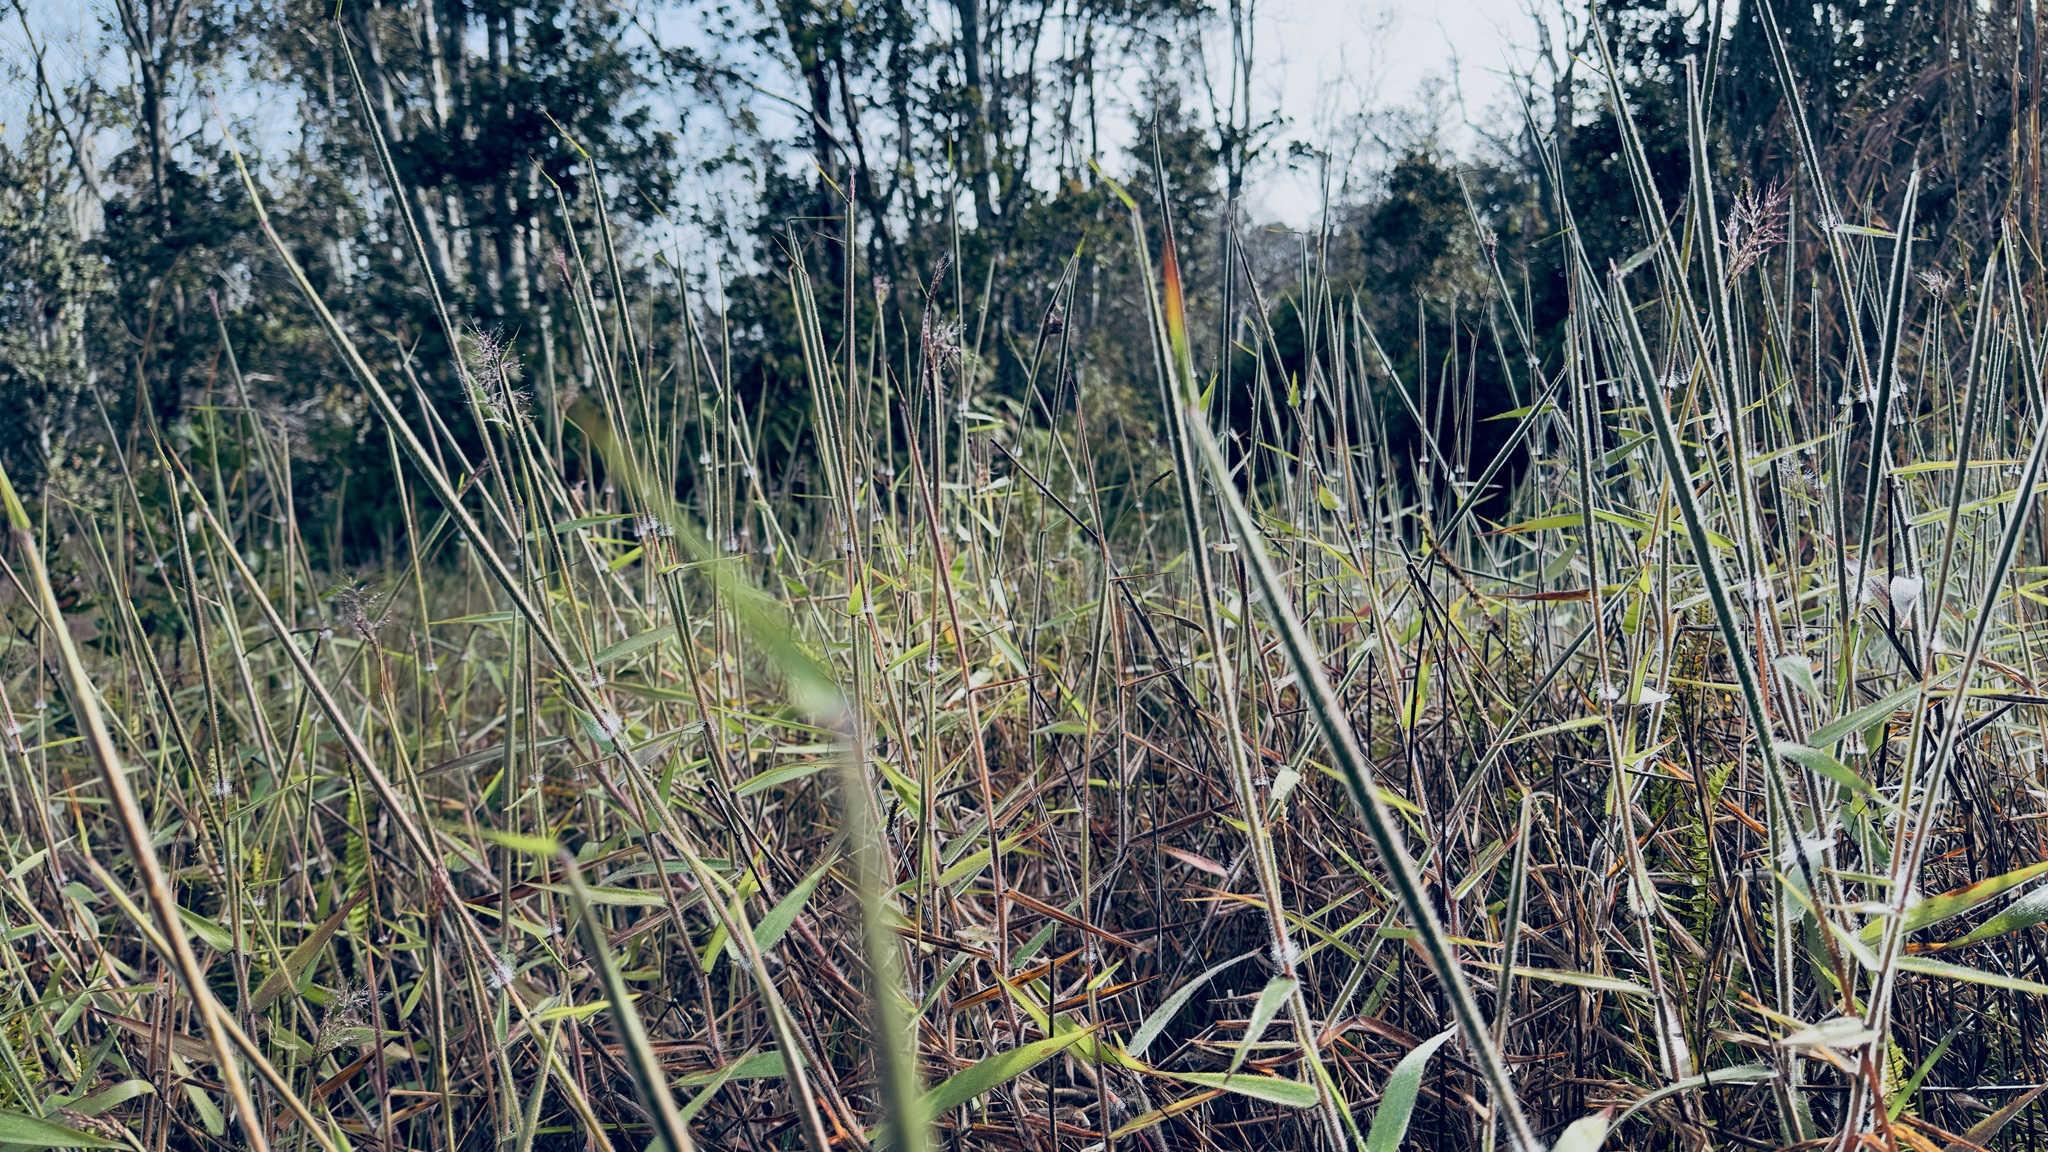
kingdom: Plantae
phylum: Tracheophyta
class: Liliopsida
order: Poales
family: Poaceae
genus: Melinis
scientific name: Melinis minutiflora
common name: Molassesgrass
